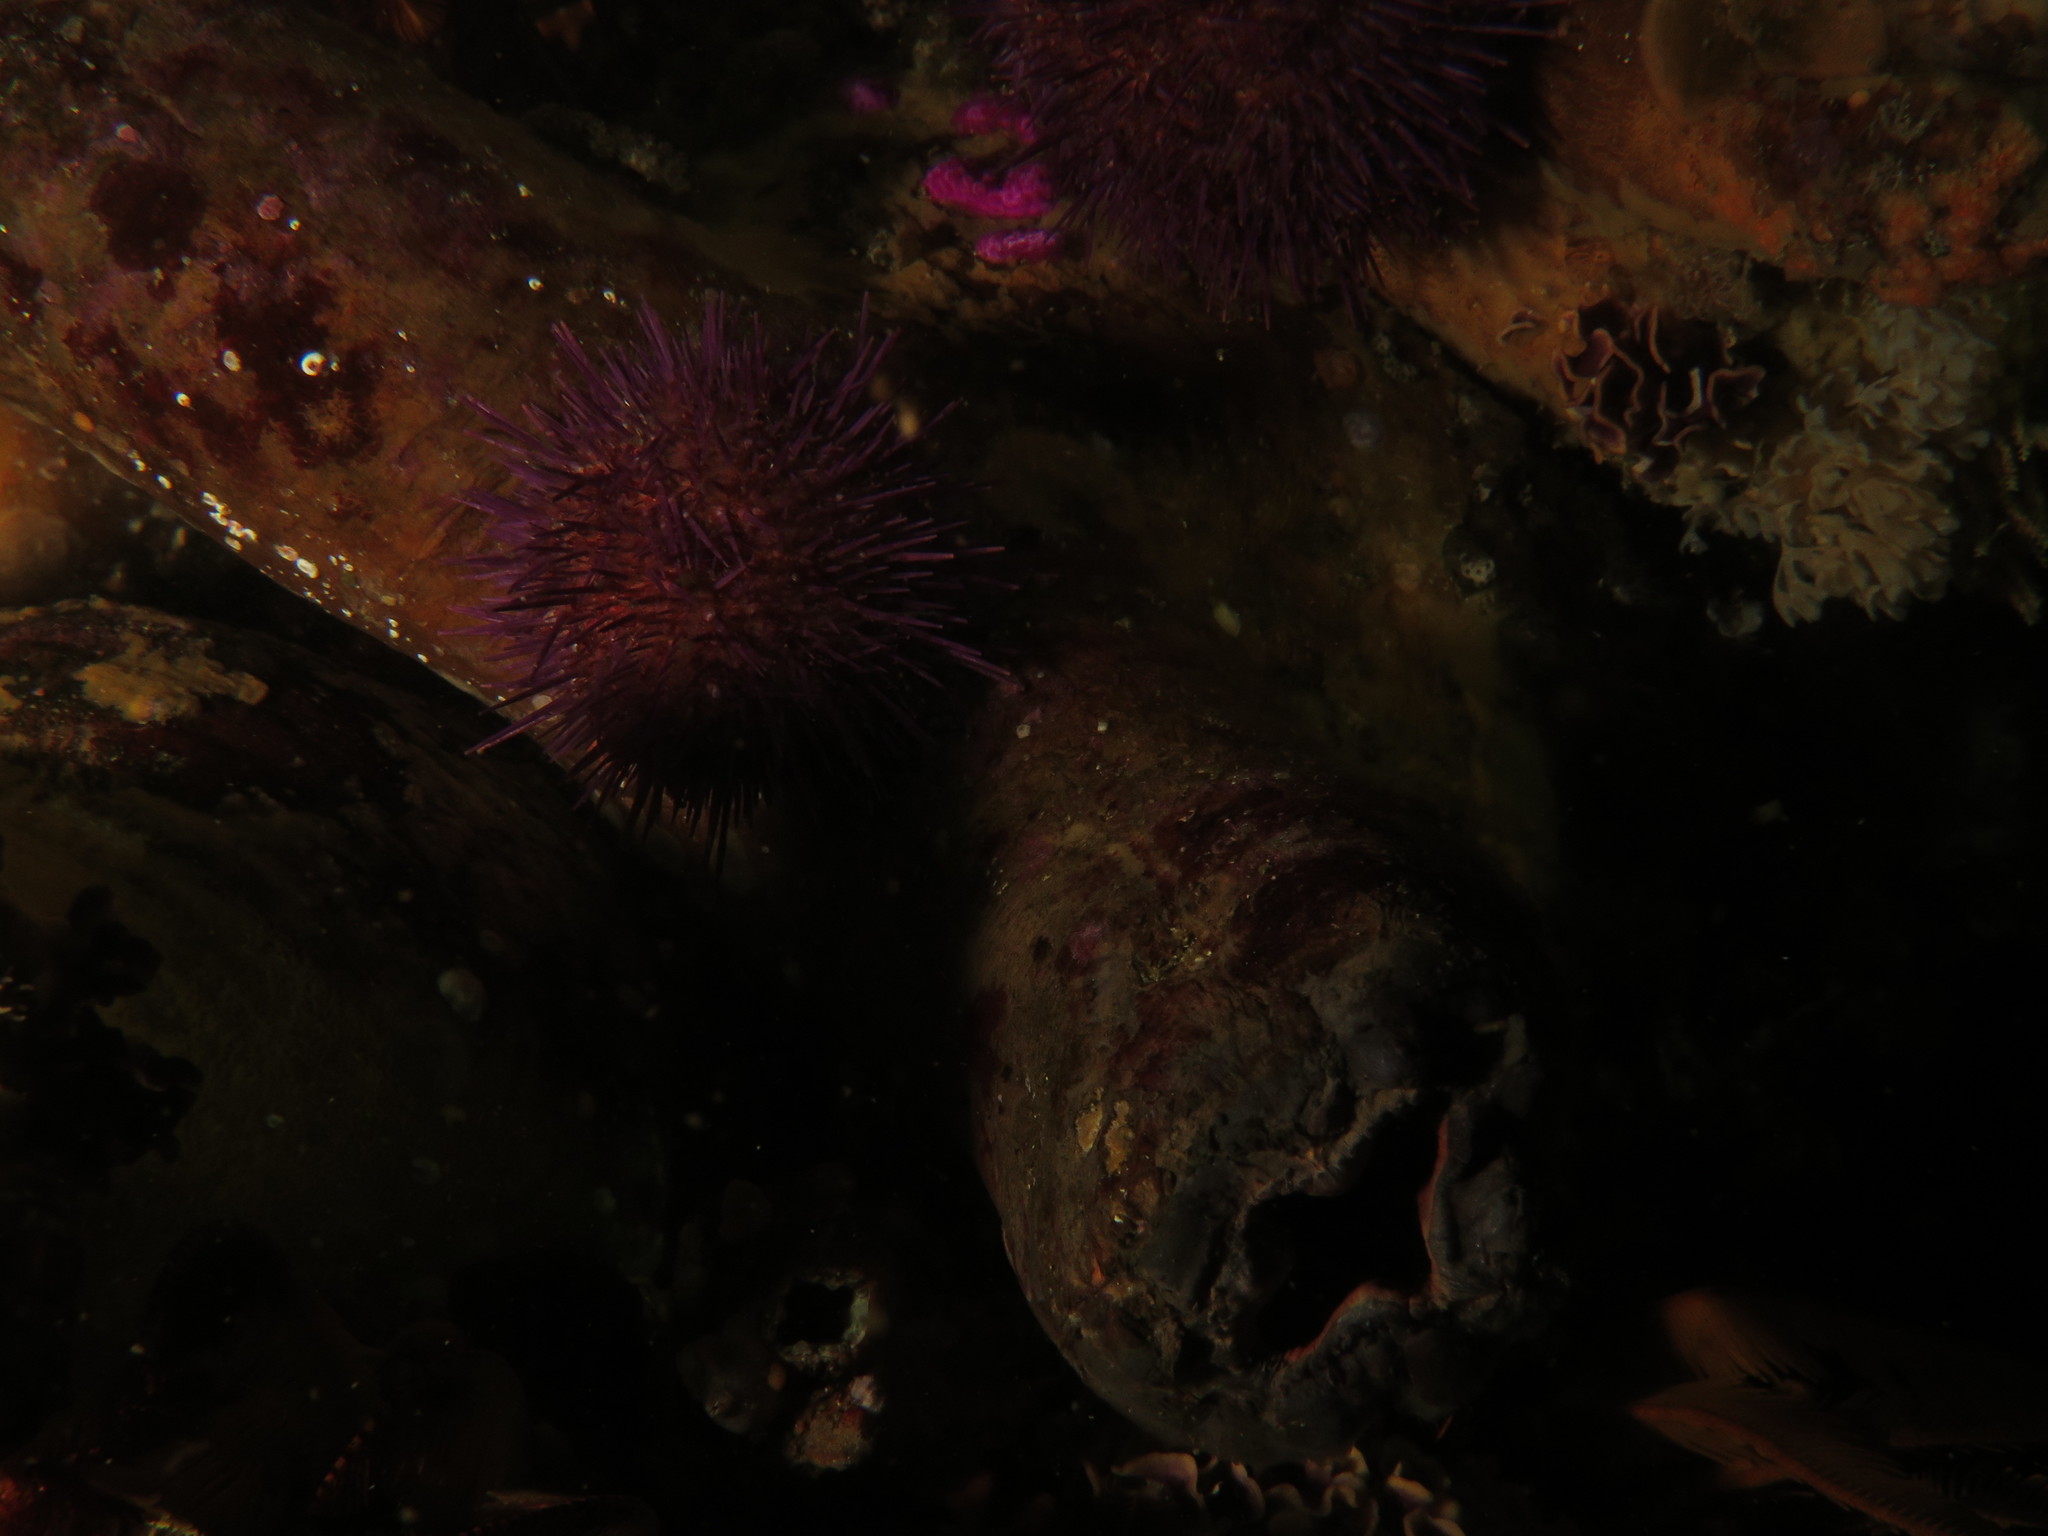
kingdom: Animalia
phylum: Chordata
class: Ascidiacea
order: Stolidobranchia
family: Pyuridae
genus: Pyura
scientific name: Pyura stolonifera
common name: Red bait
